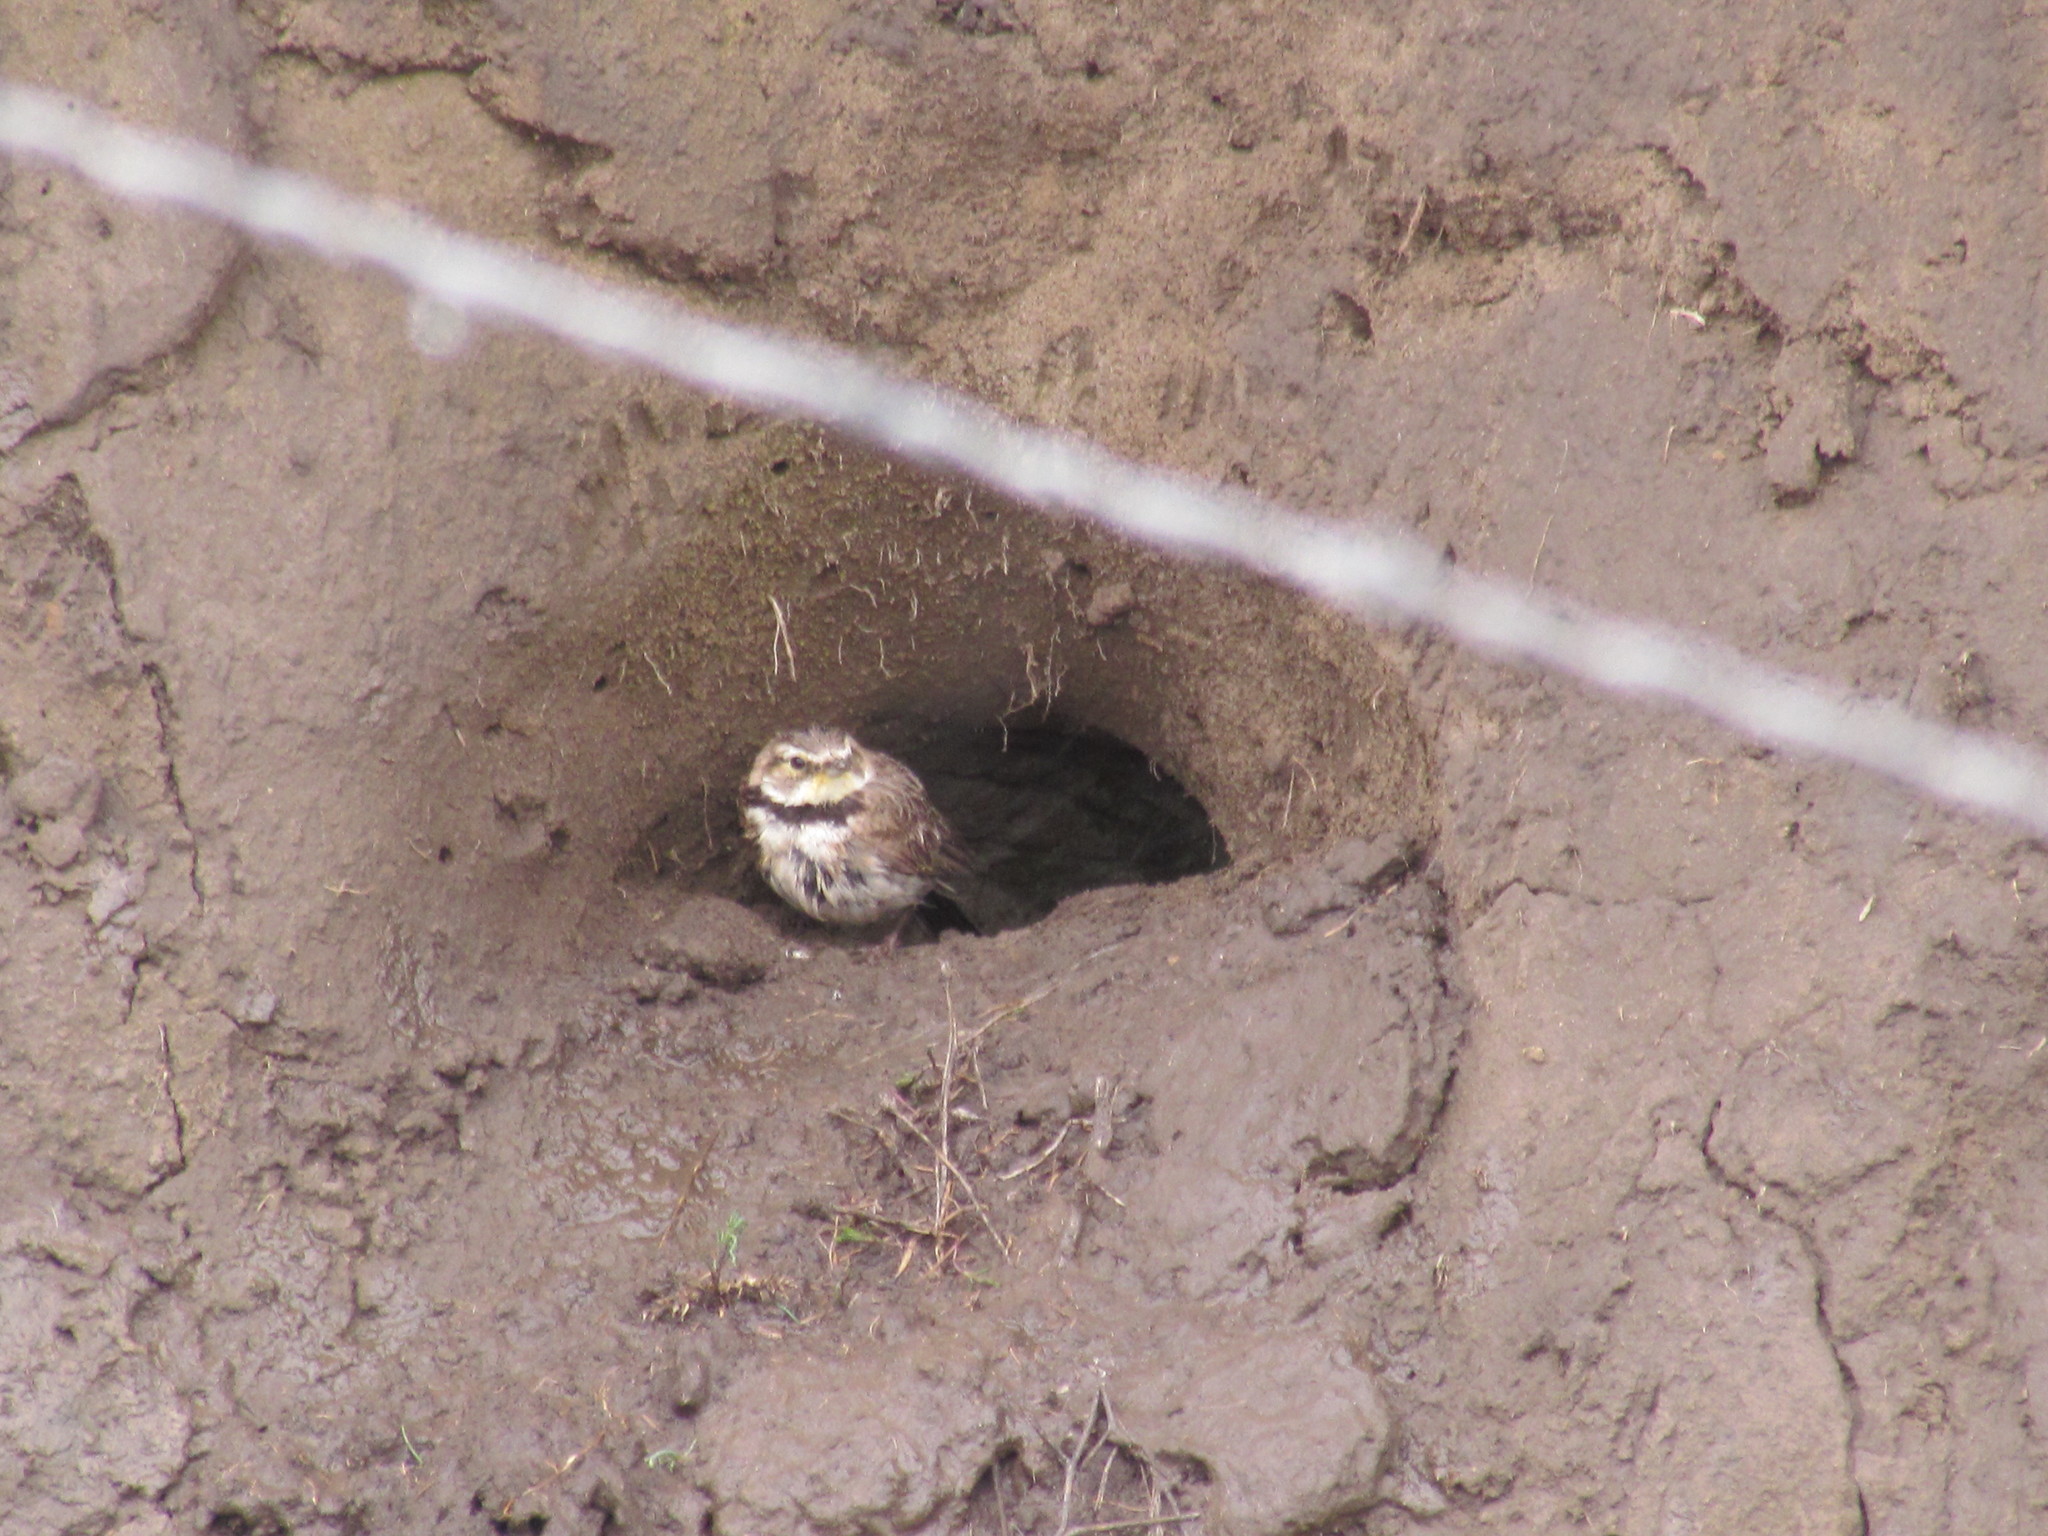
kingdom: Animalia
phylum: Chordata
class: Aves
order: Passeriformes
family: Alaudidae
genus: Eremophila
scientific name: Eremophila alpestris
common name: Horned lark
